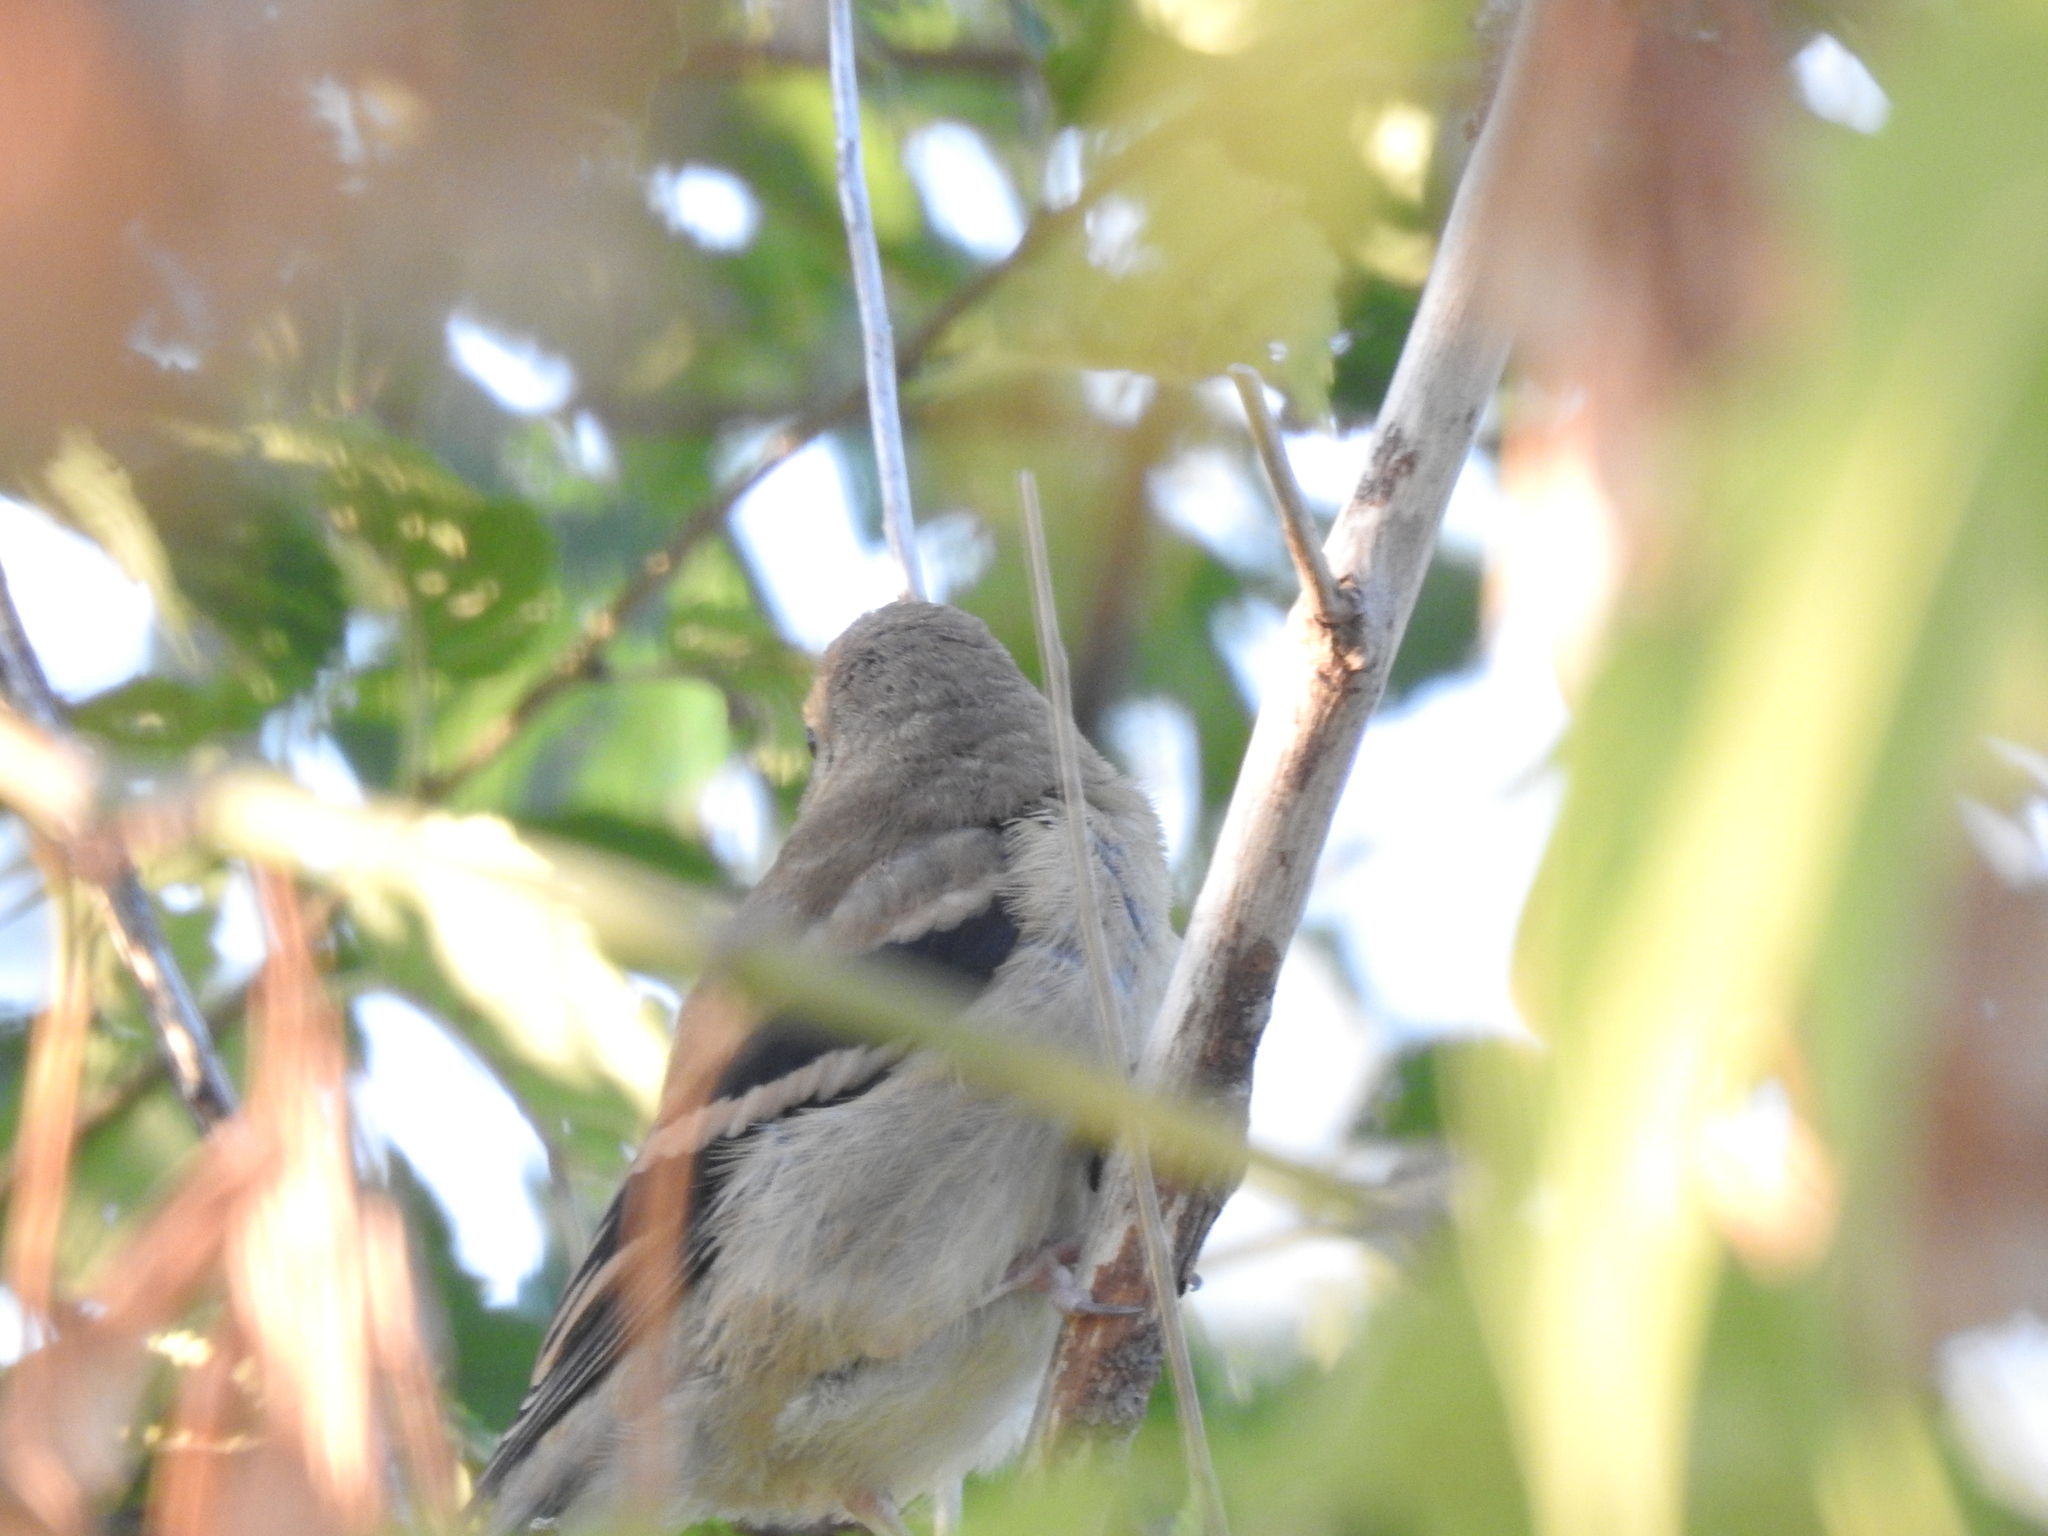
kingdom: Animalia
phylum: Chordata
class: Aves
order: Passeriformes
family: Fringillidae
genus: Spinus
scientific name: Spinus tristis
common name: American goldfinch
